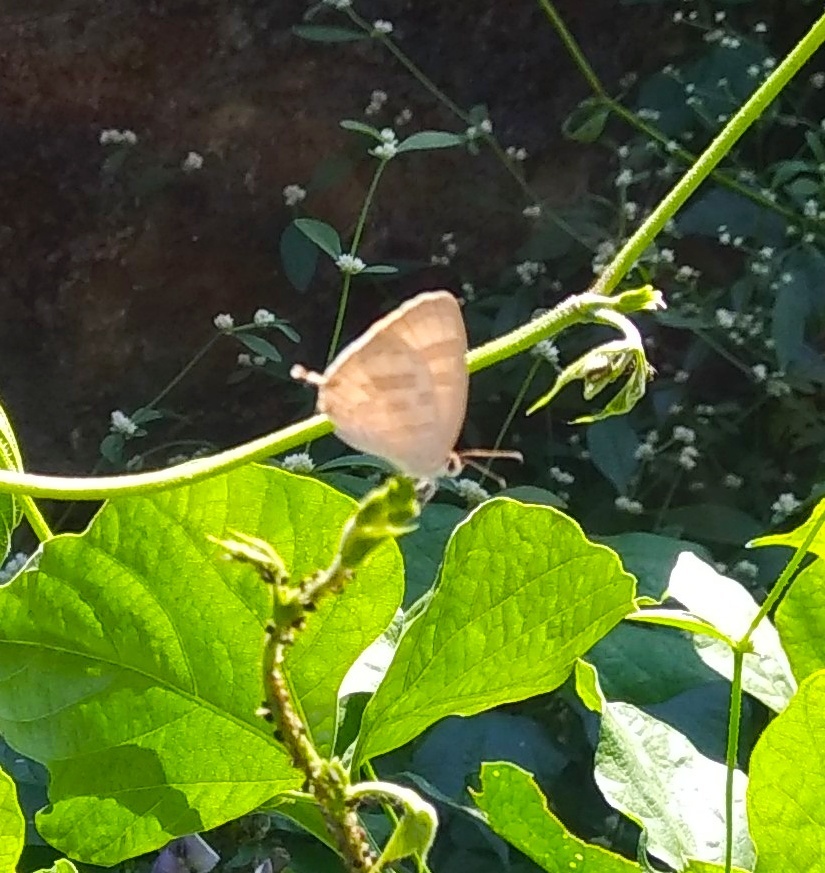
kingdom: Animalia
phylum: Arthropoda
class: Insecta
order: Lepidoptera
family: Lycaenidae
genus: Jamides
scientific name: Jamides celeno
